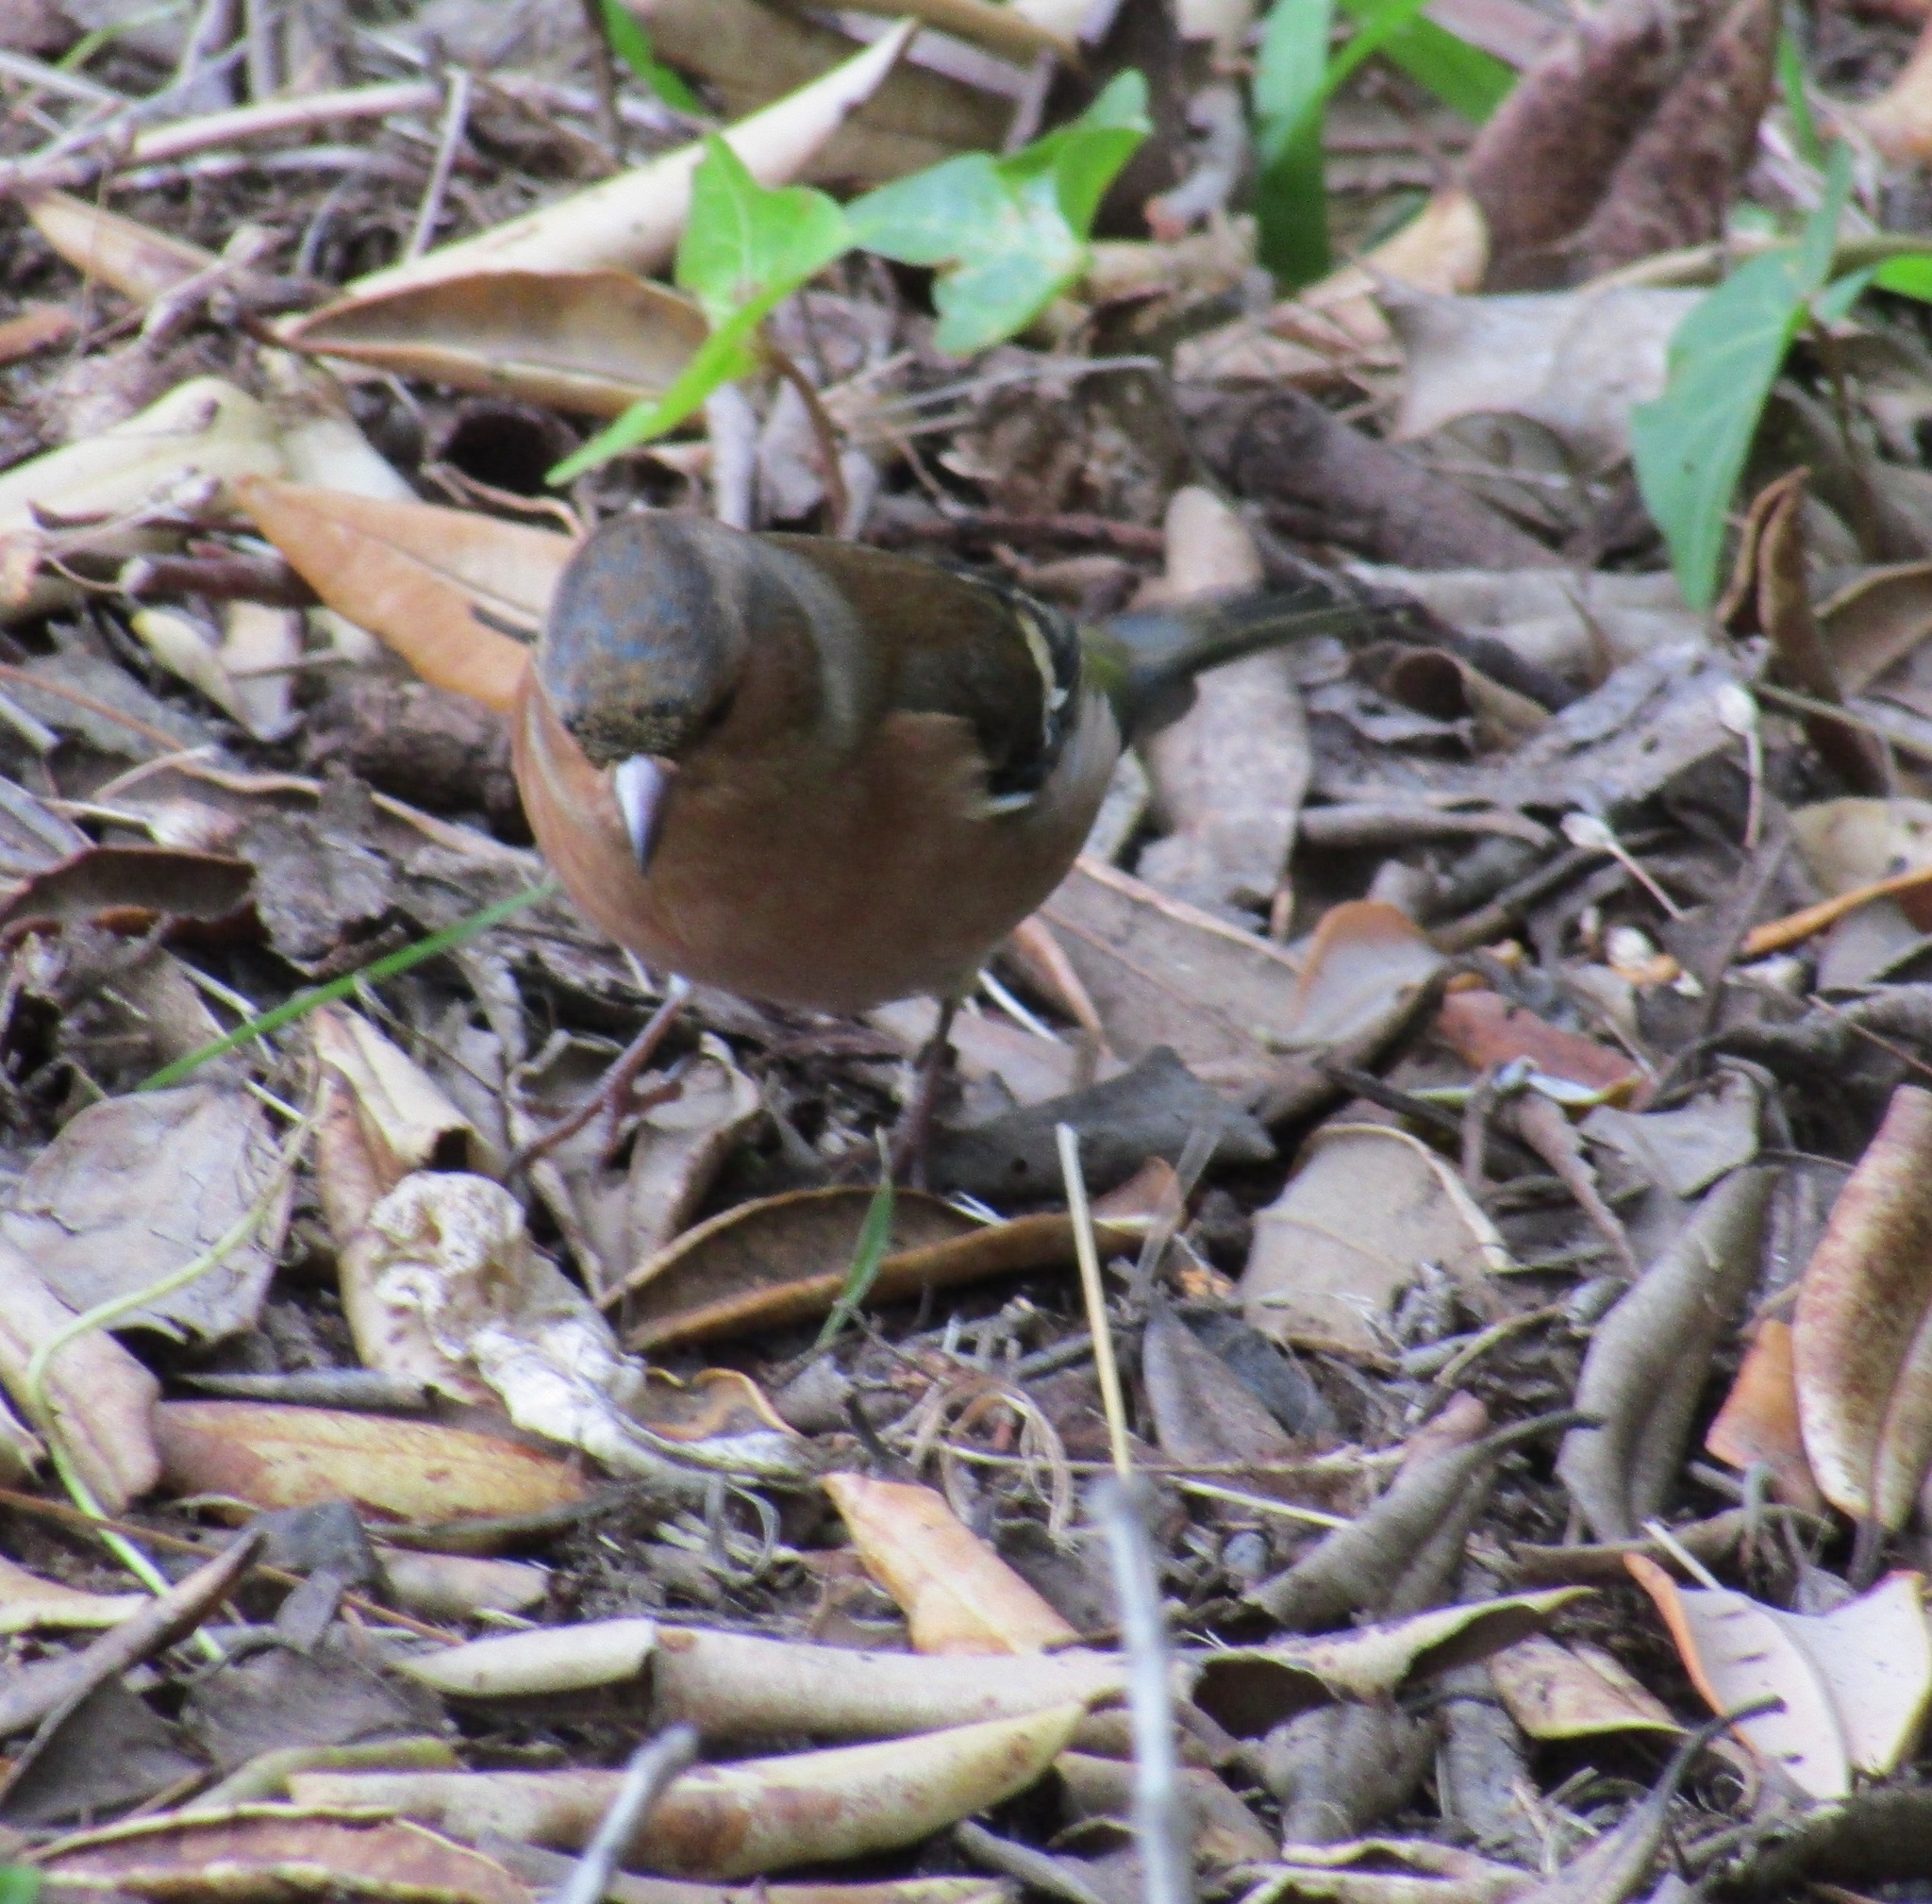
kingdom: Animalia
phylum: Chordata
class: Aves
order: Passeriformes
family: Fringillidae
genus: Fringilla
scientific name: Fringilla coelebs
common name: Common chaffinch
